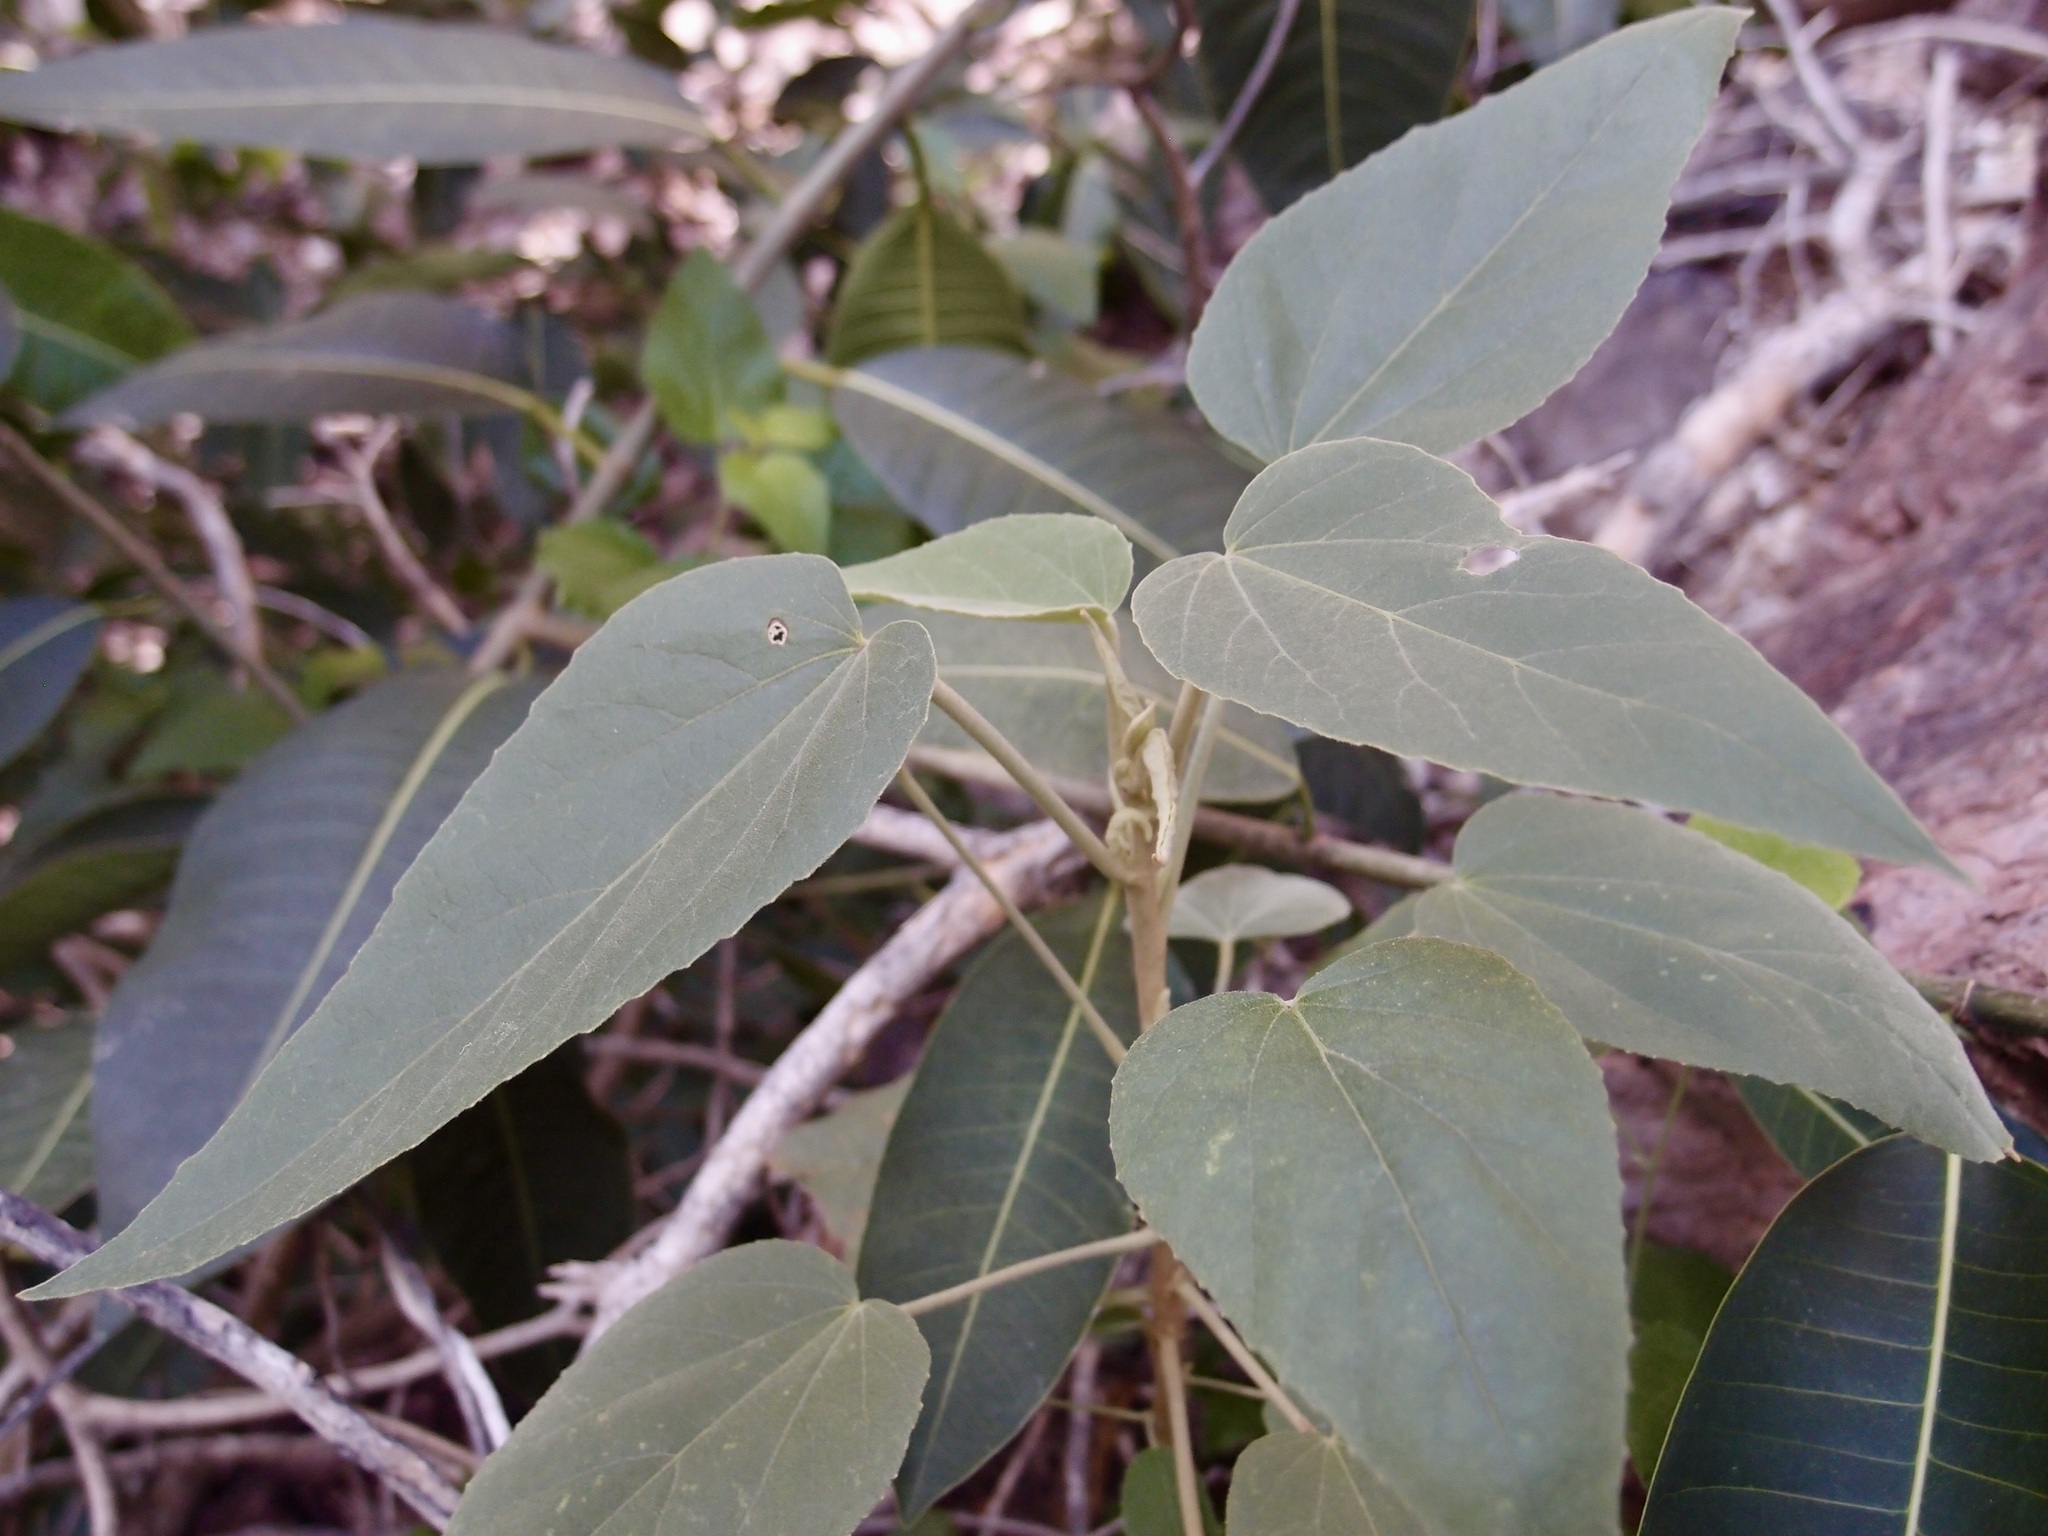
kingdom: Plantae
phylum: Tracheophyta
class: Magnoliopsida
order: Malvales
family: Malvaceae
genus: Horsfordia
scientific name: Horsfordia newberryi
